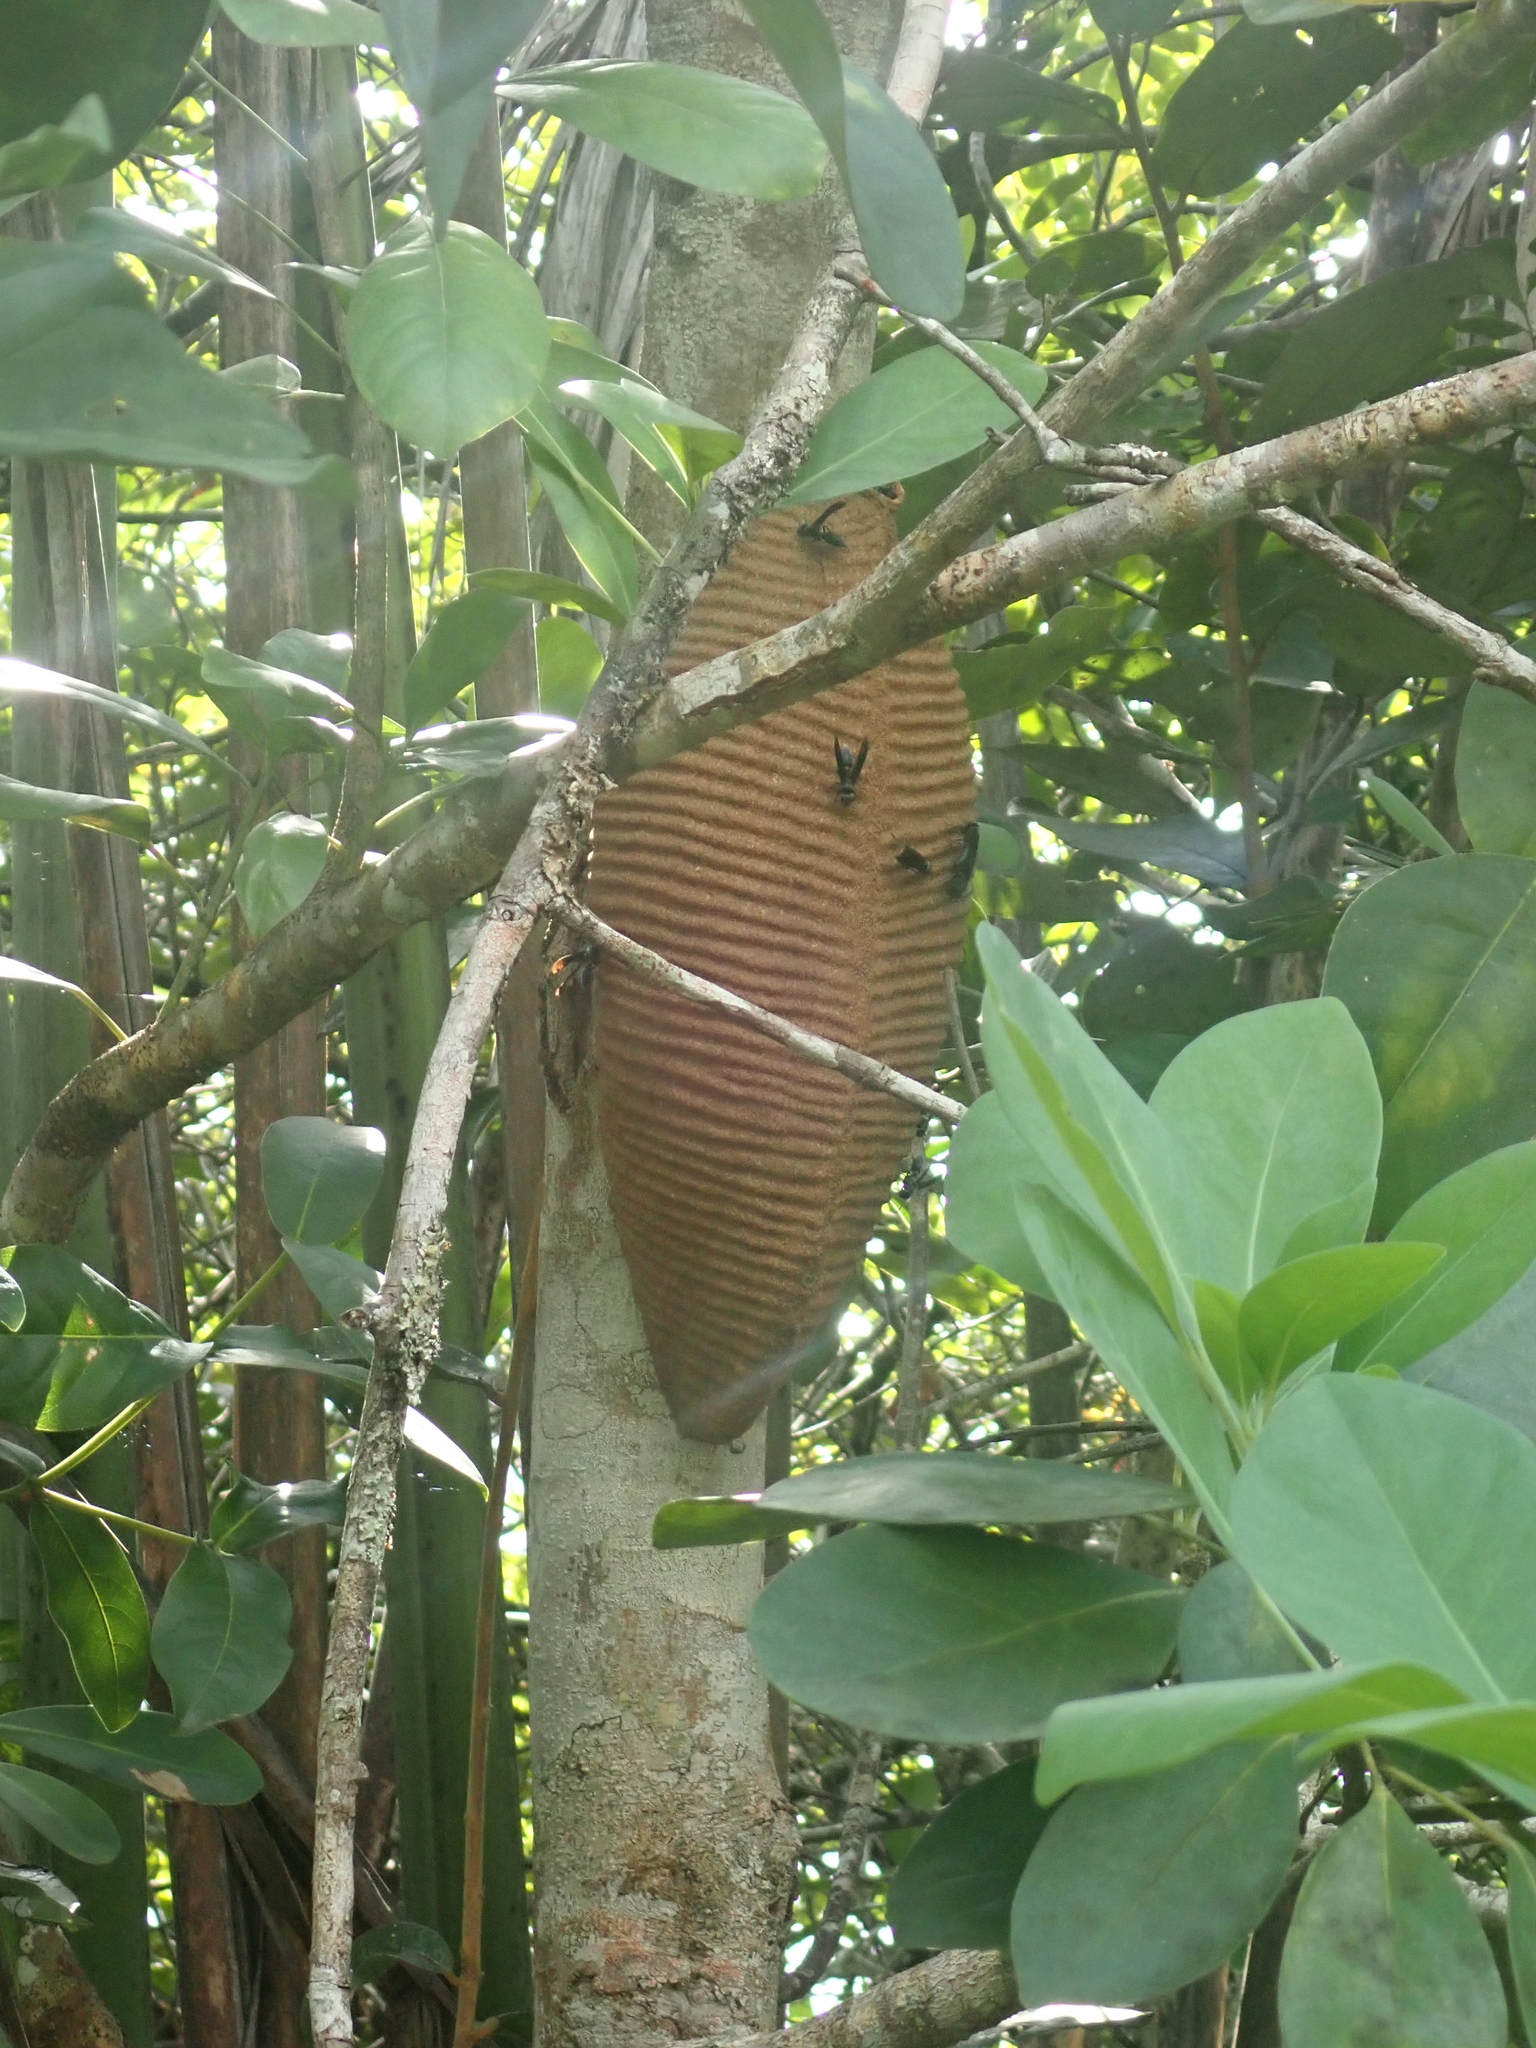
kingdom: Animalia
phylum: Arthropoda
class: Insecta
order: Hymenoptera
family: Vespidae
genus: Synoeca
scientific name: Synoeca
